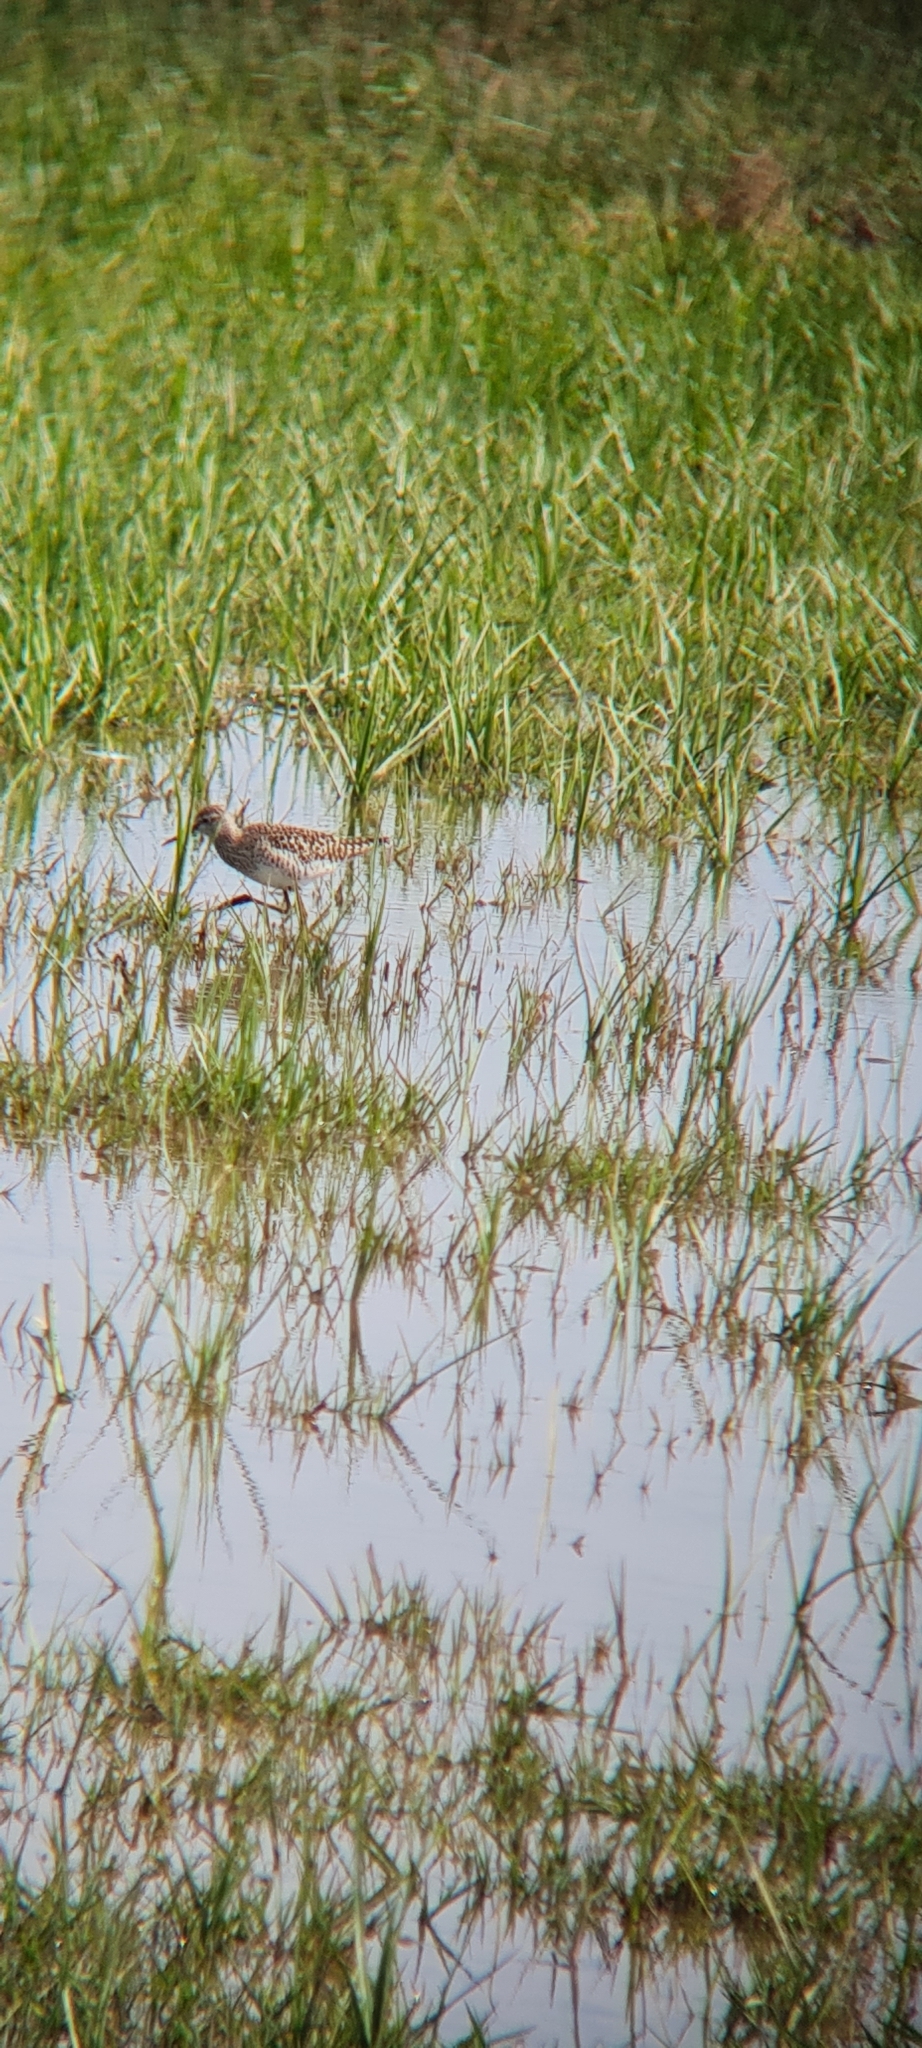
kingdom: Animalia
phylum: Chordata
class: Aves
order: Charadriiformes
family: Scolopacidae
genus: Tringa
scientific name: Tringa glareola
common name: Wood sandpiper
